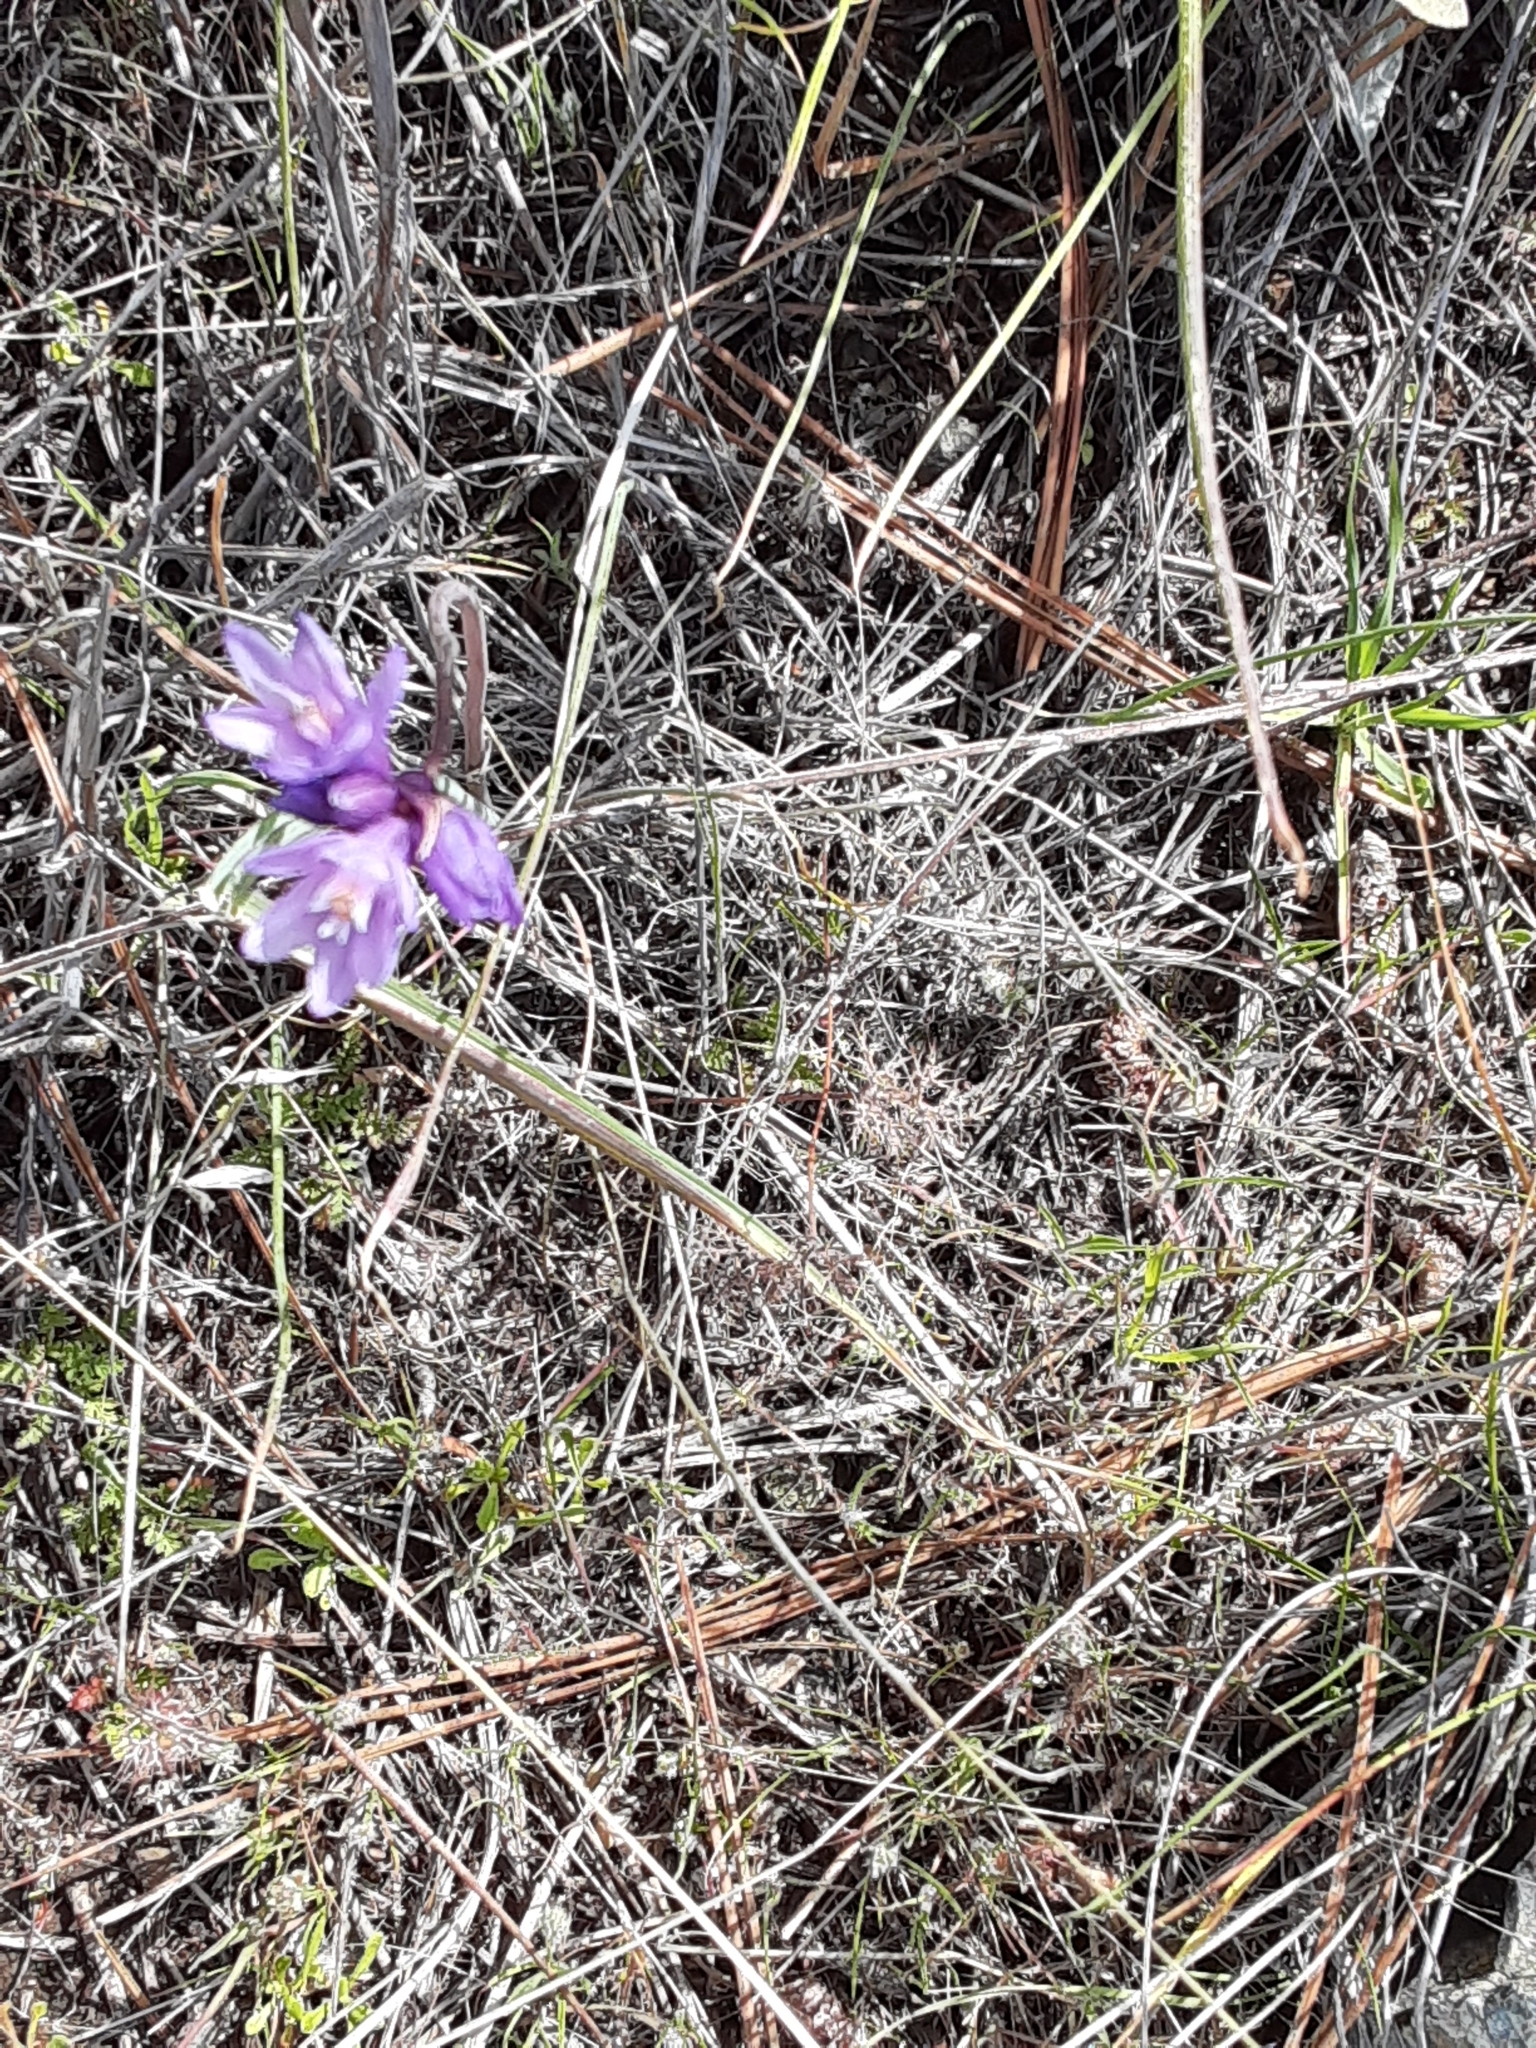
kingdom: Plantae
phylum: Tracheophyta
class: Liliopsida
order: Asparagales
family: Asparagaceae
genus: Dipterostemon
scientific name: Dipterostemon capitatus
